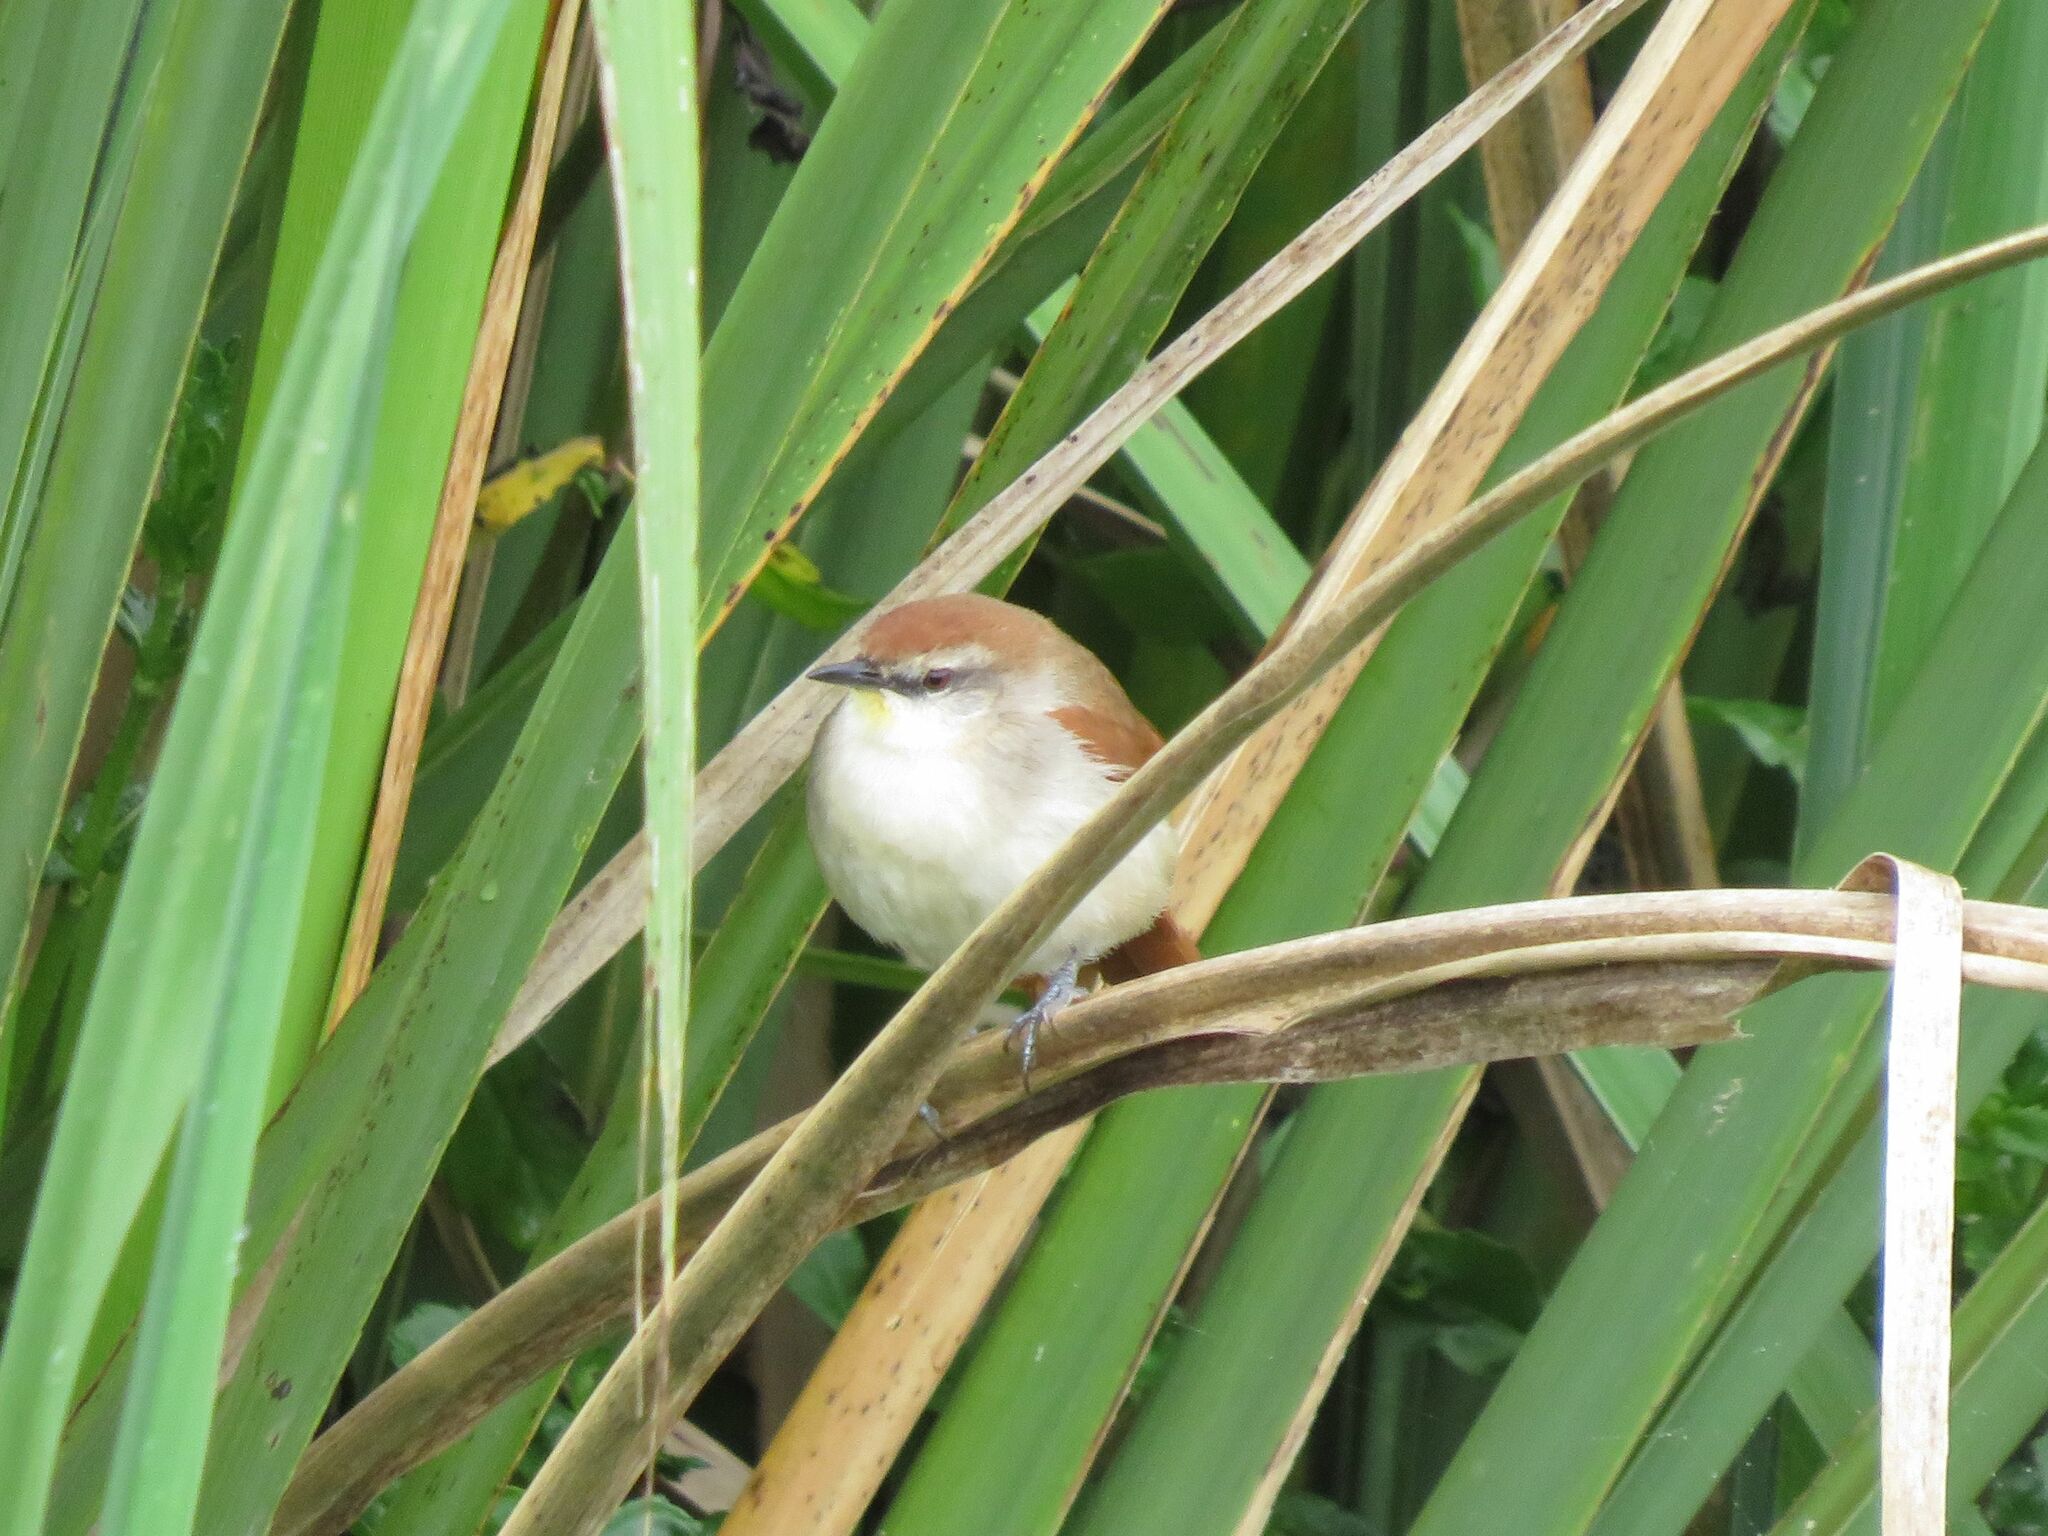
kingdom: Animalia
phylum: Chordata
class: Aves
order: Passeriformes
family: Furnariidae
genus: Certhiaxis
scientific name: Certhiaxis cinnamomeus
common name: Yellow-chinned spinetail
